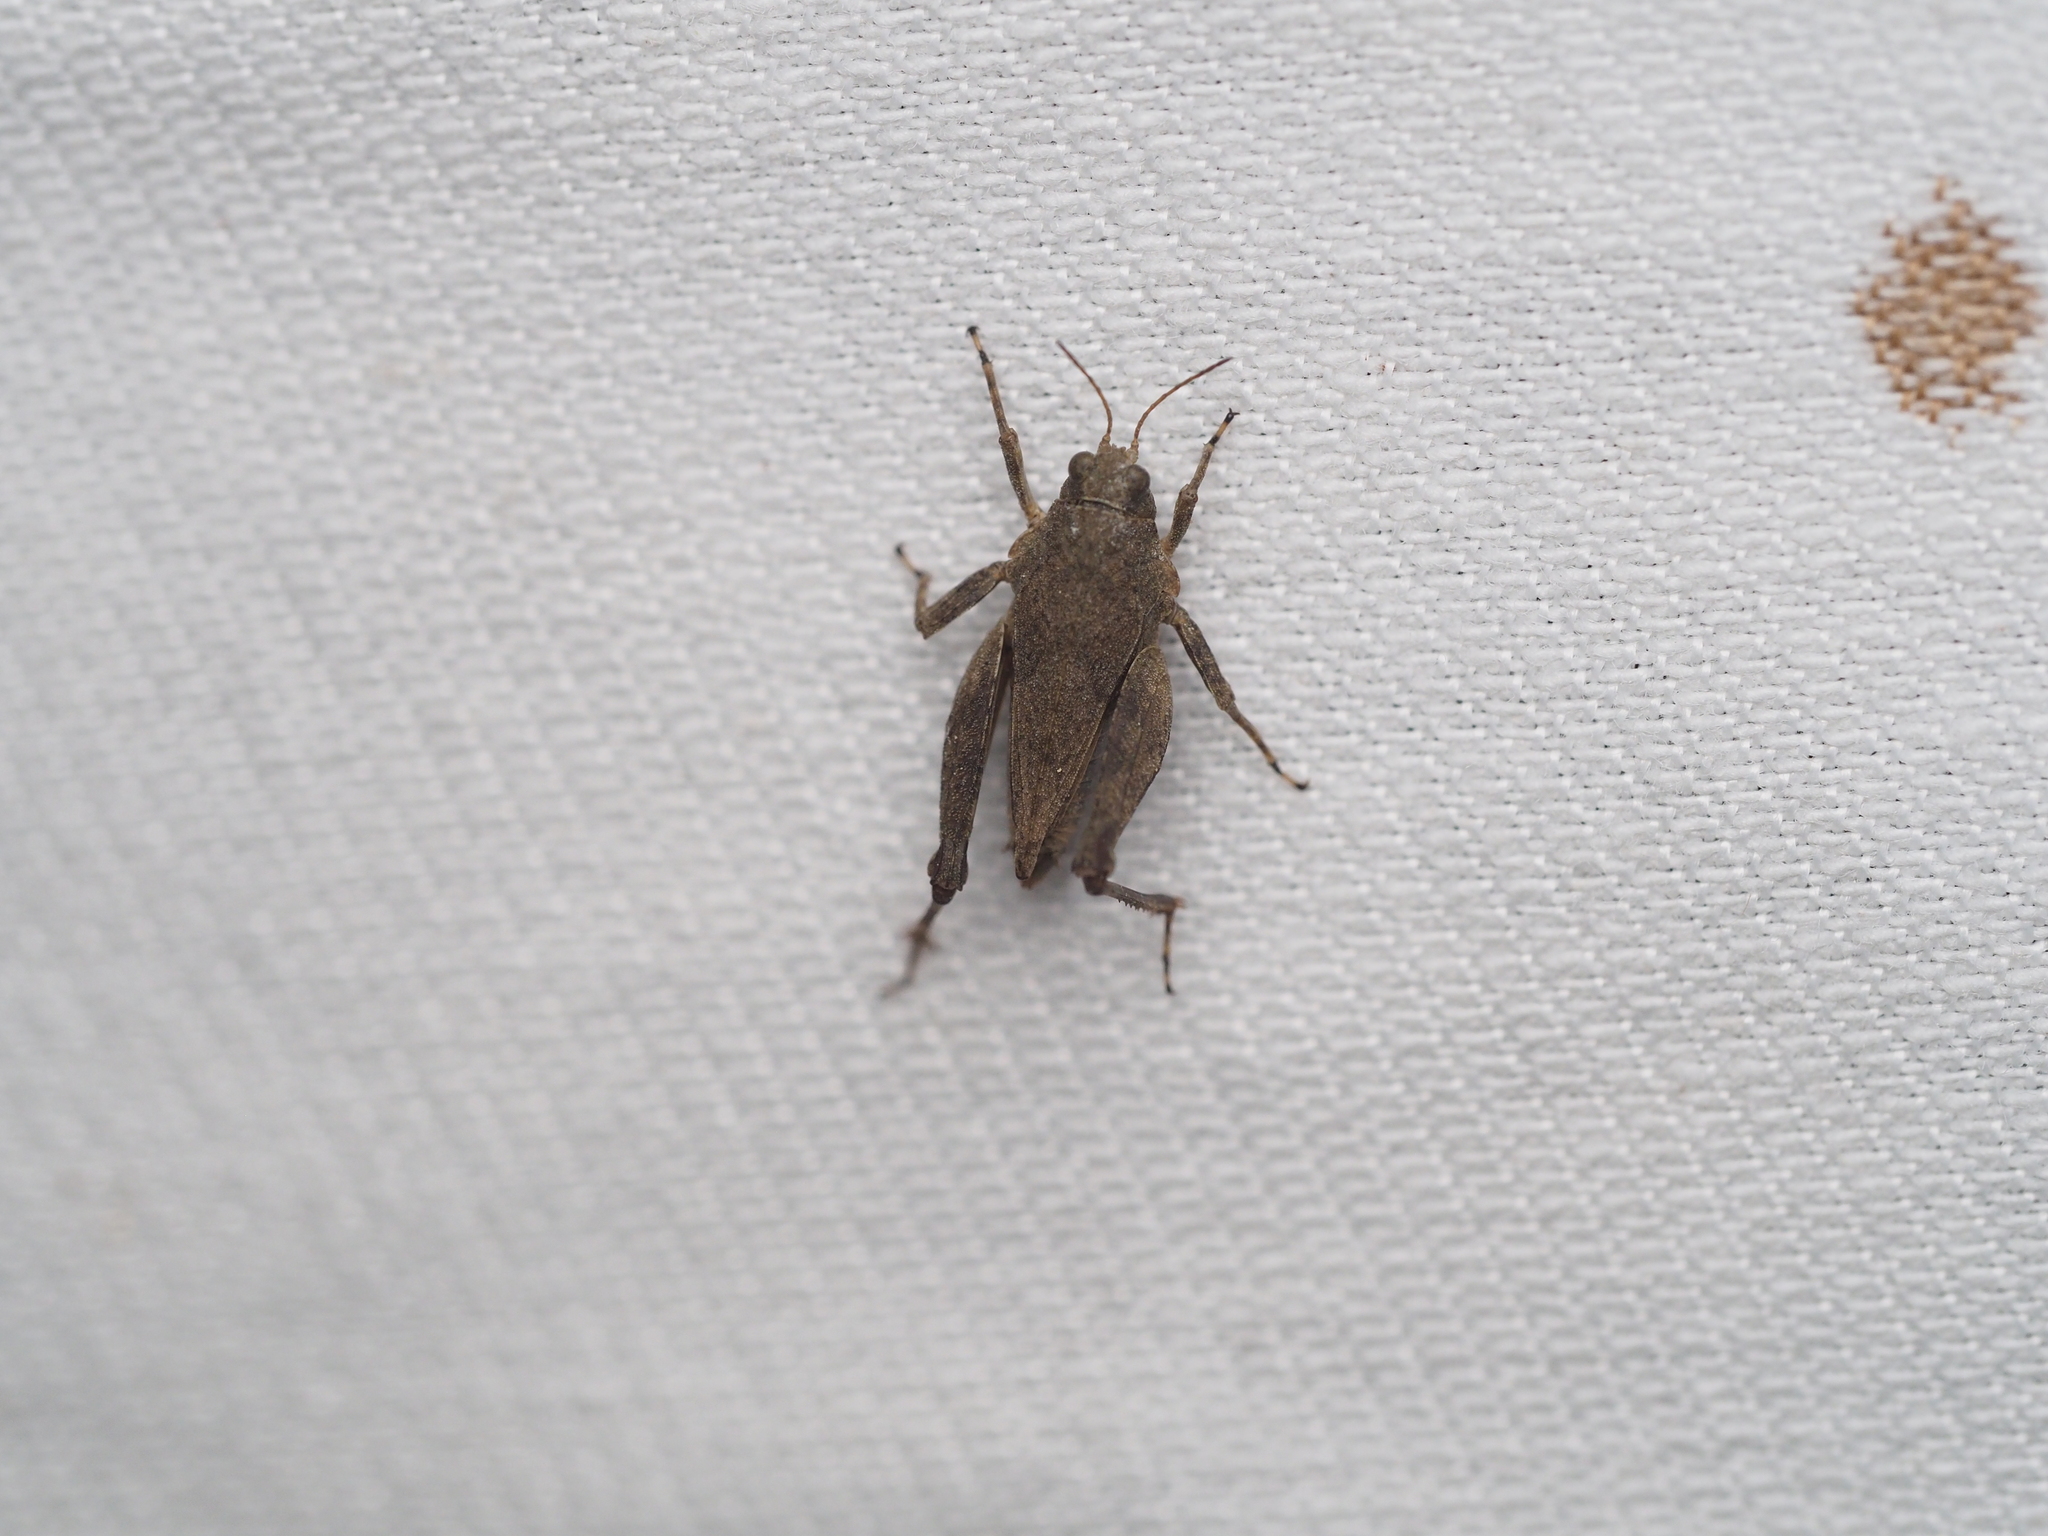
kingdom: Animalia
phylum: Arthropoda
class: Insecta
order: Orthoptera
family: Tetrigidae
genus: Tetrix
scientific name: Tetrix tenuicornis
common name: Long-horned groundhopper
